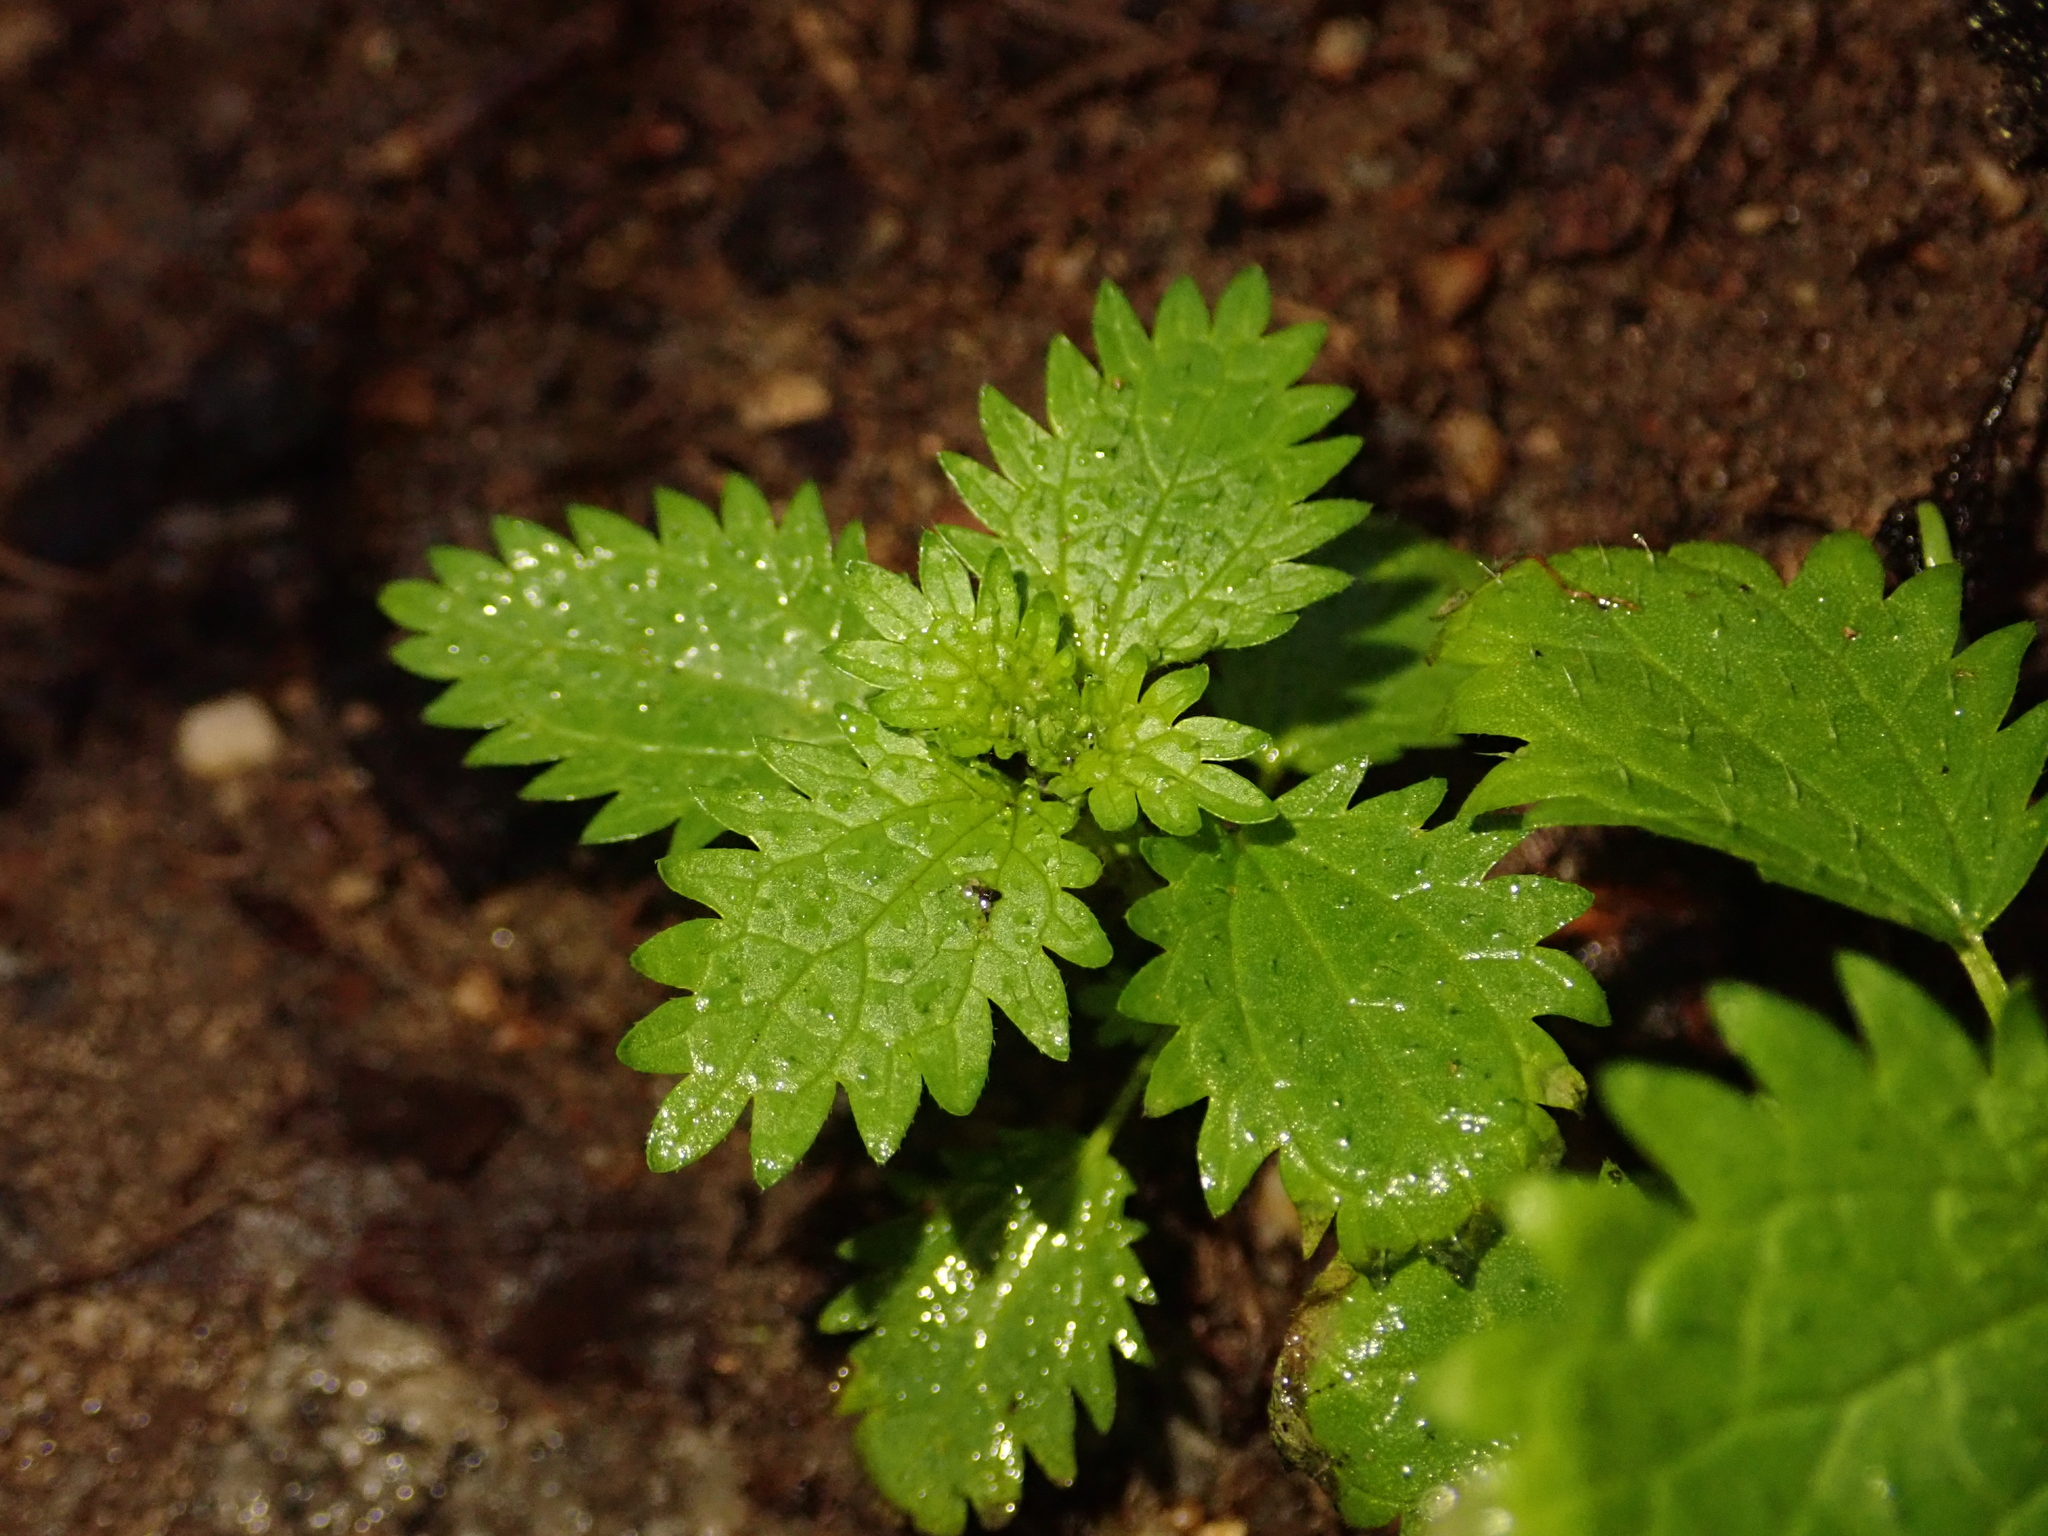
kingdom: Plantae
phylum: Tracheophyta
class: Magnoliopsida
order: Rosales
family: Urticaceae
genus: Urtica
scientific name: Urtica urens
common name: Dwarf nettle
